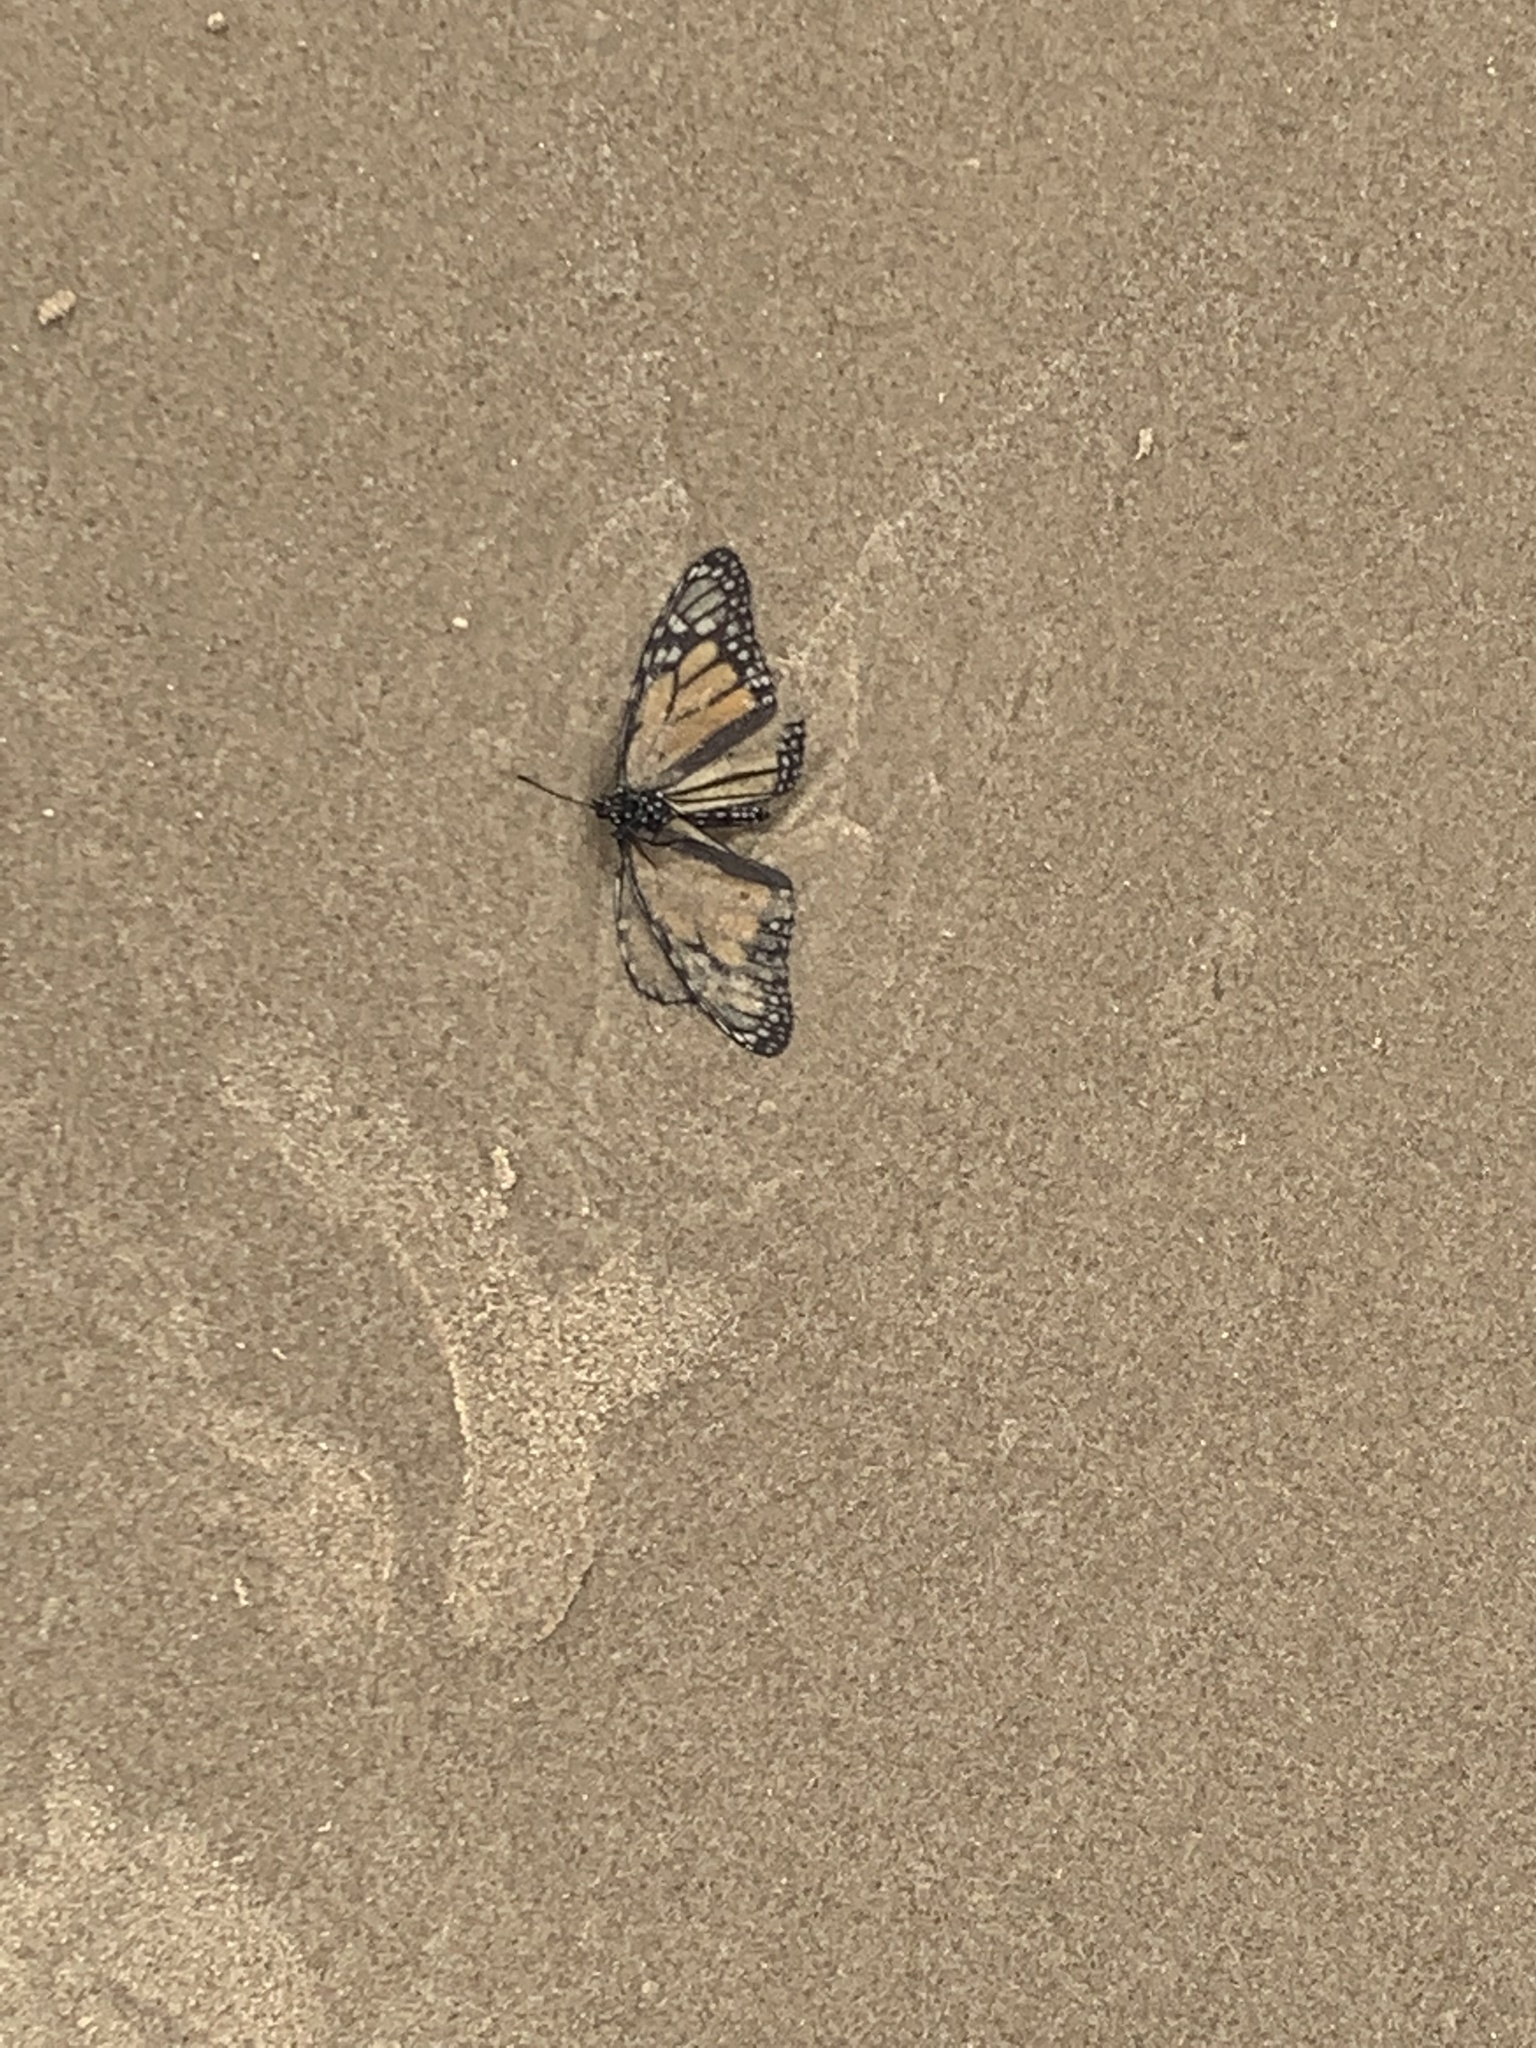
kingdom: Animalia
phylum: Arthropoda
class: Insecta
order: Lepidoptera
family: Nymphalidae
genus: Danaus
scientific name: Danaus plexippus
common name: Monarch
